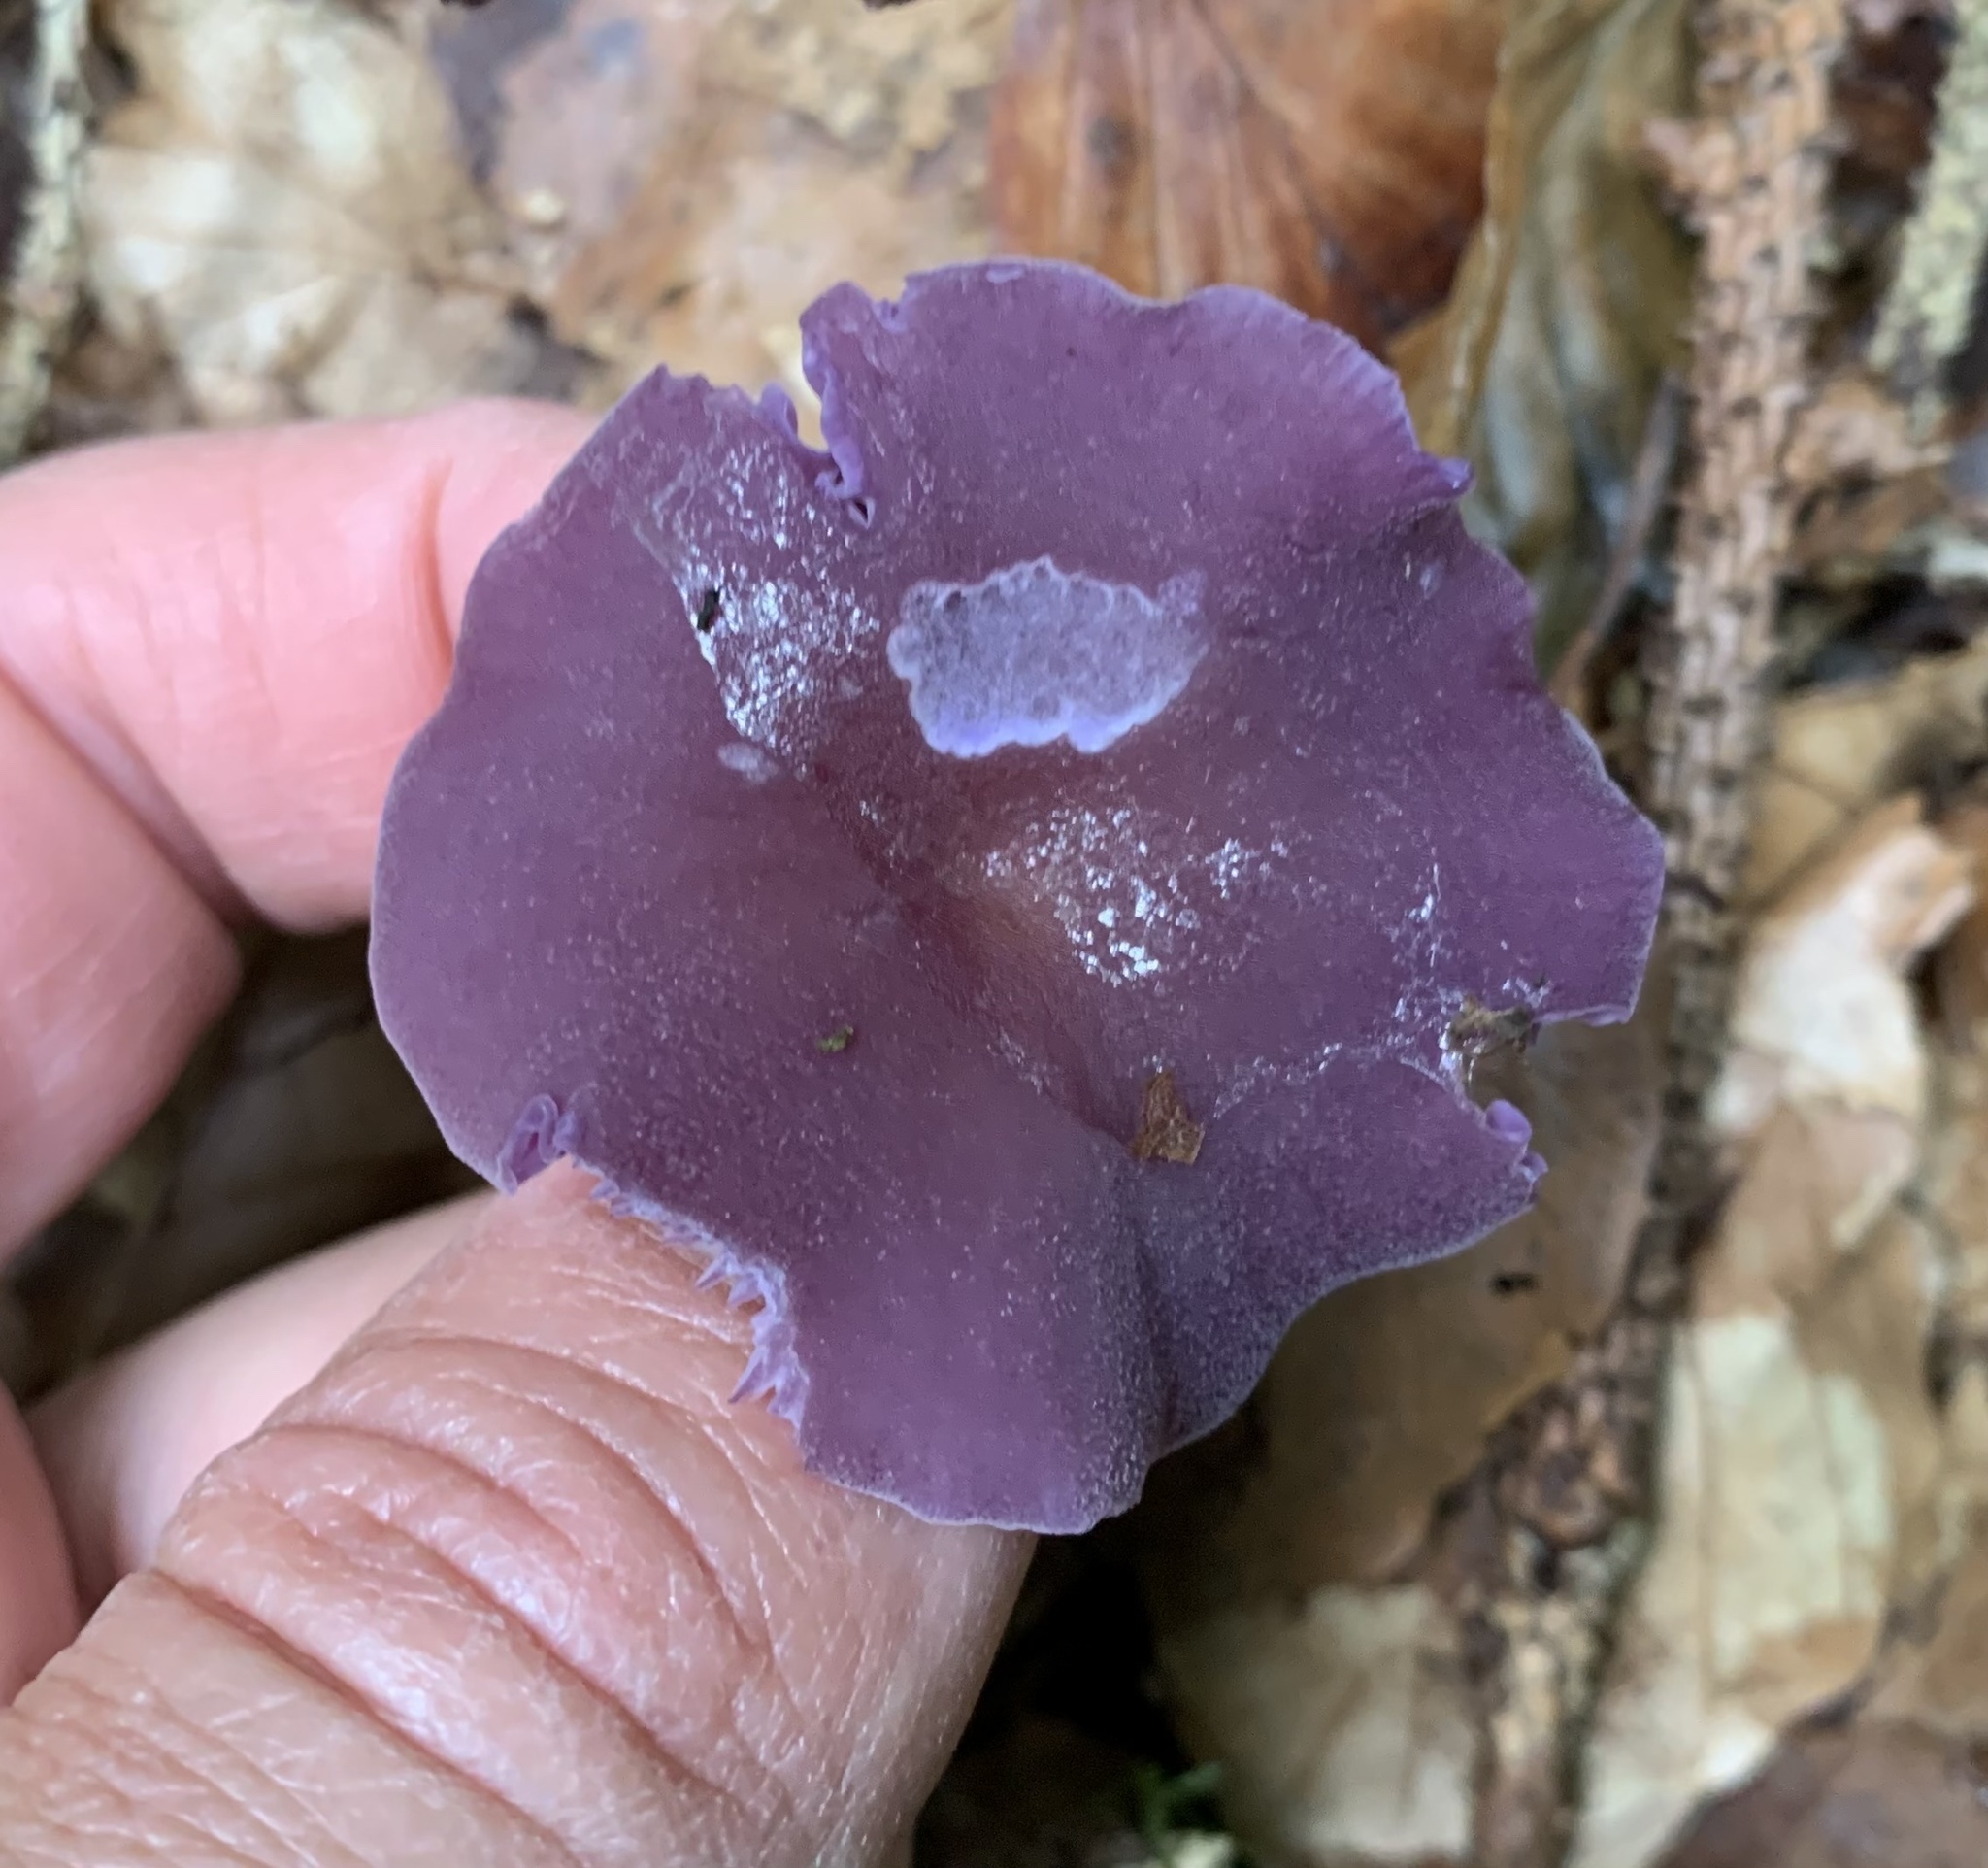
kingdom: Fungi
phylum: Basidiomycota
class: Agaricomycetes
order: Agaricales
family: Hydnangiaceae
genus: Laccaria
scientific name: Laccaria amethystina
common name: Amethyst deceiver
